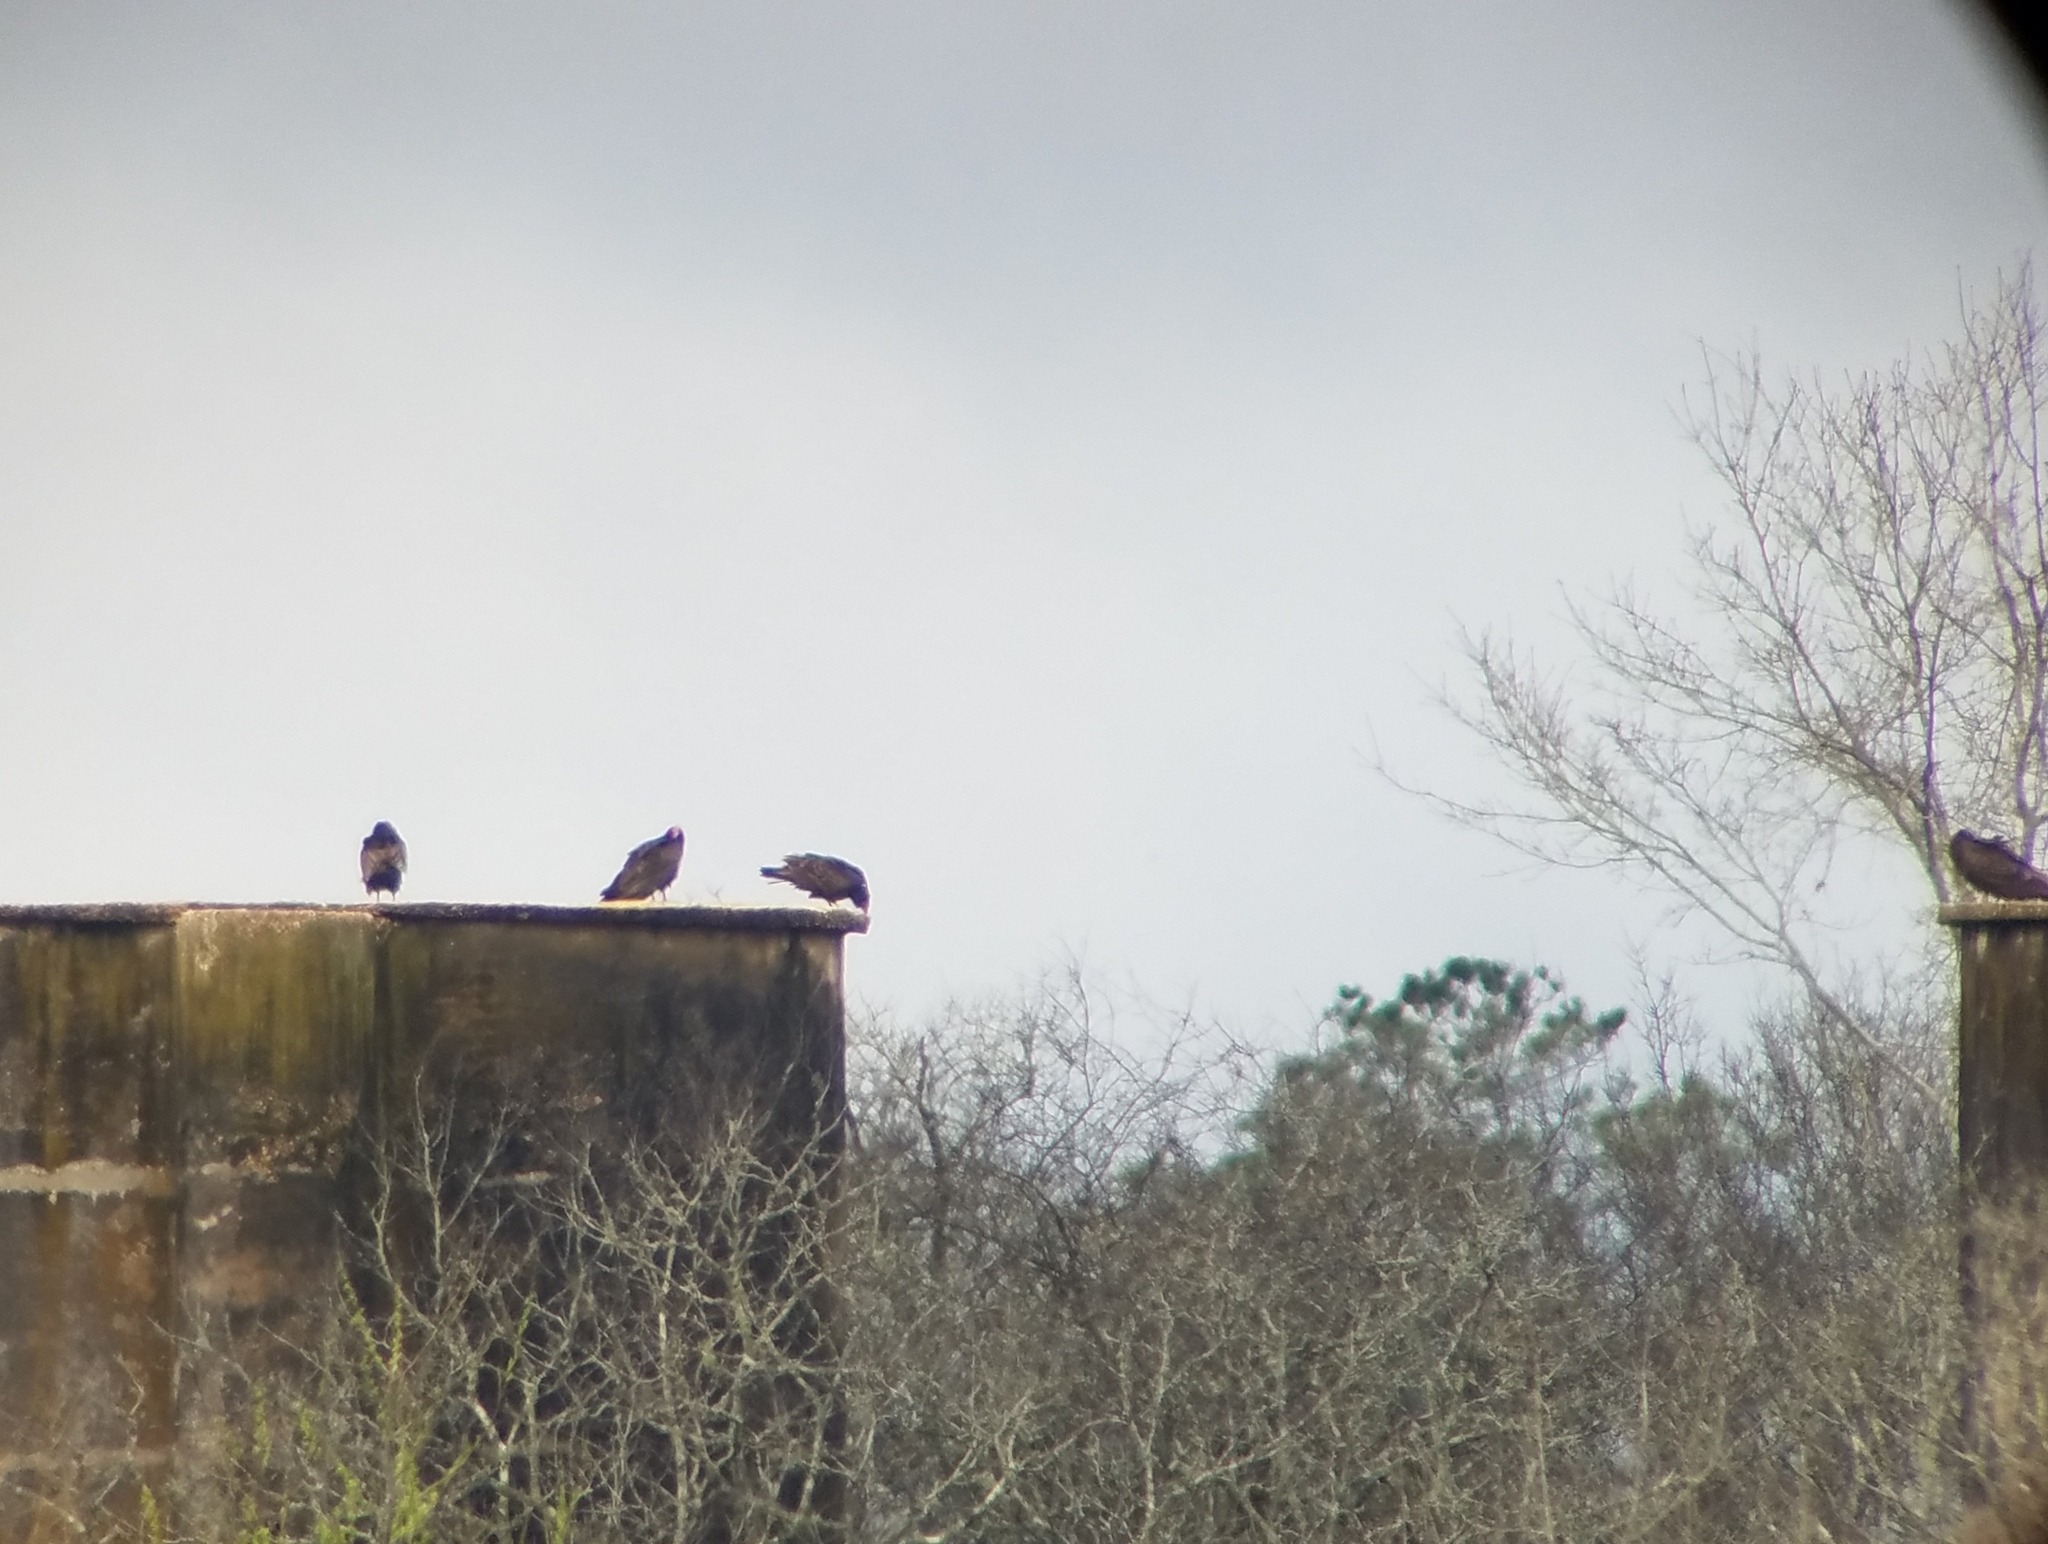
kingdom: Animalia
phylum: Chordata
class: Aves
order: Accipitriformes
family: Cathartidae
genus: Cathartes
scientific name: Cathartes aura
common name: Turkey vulture
